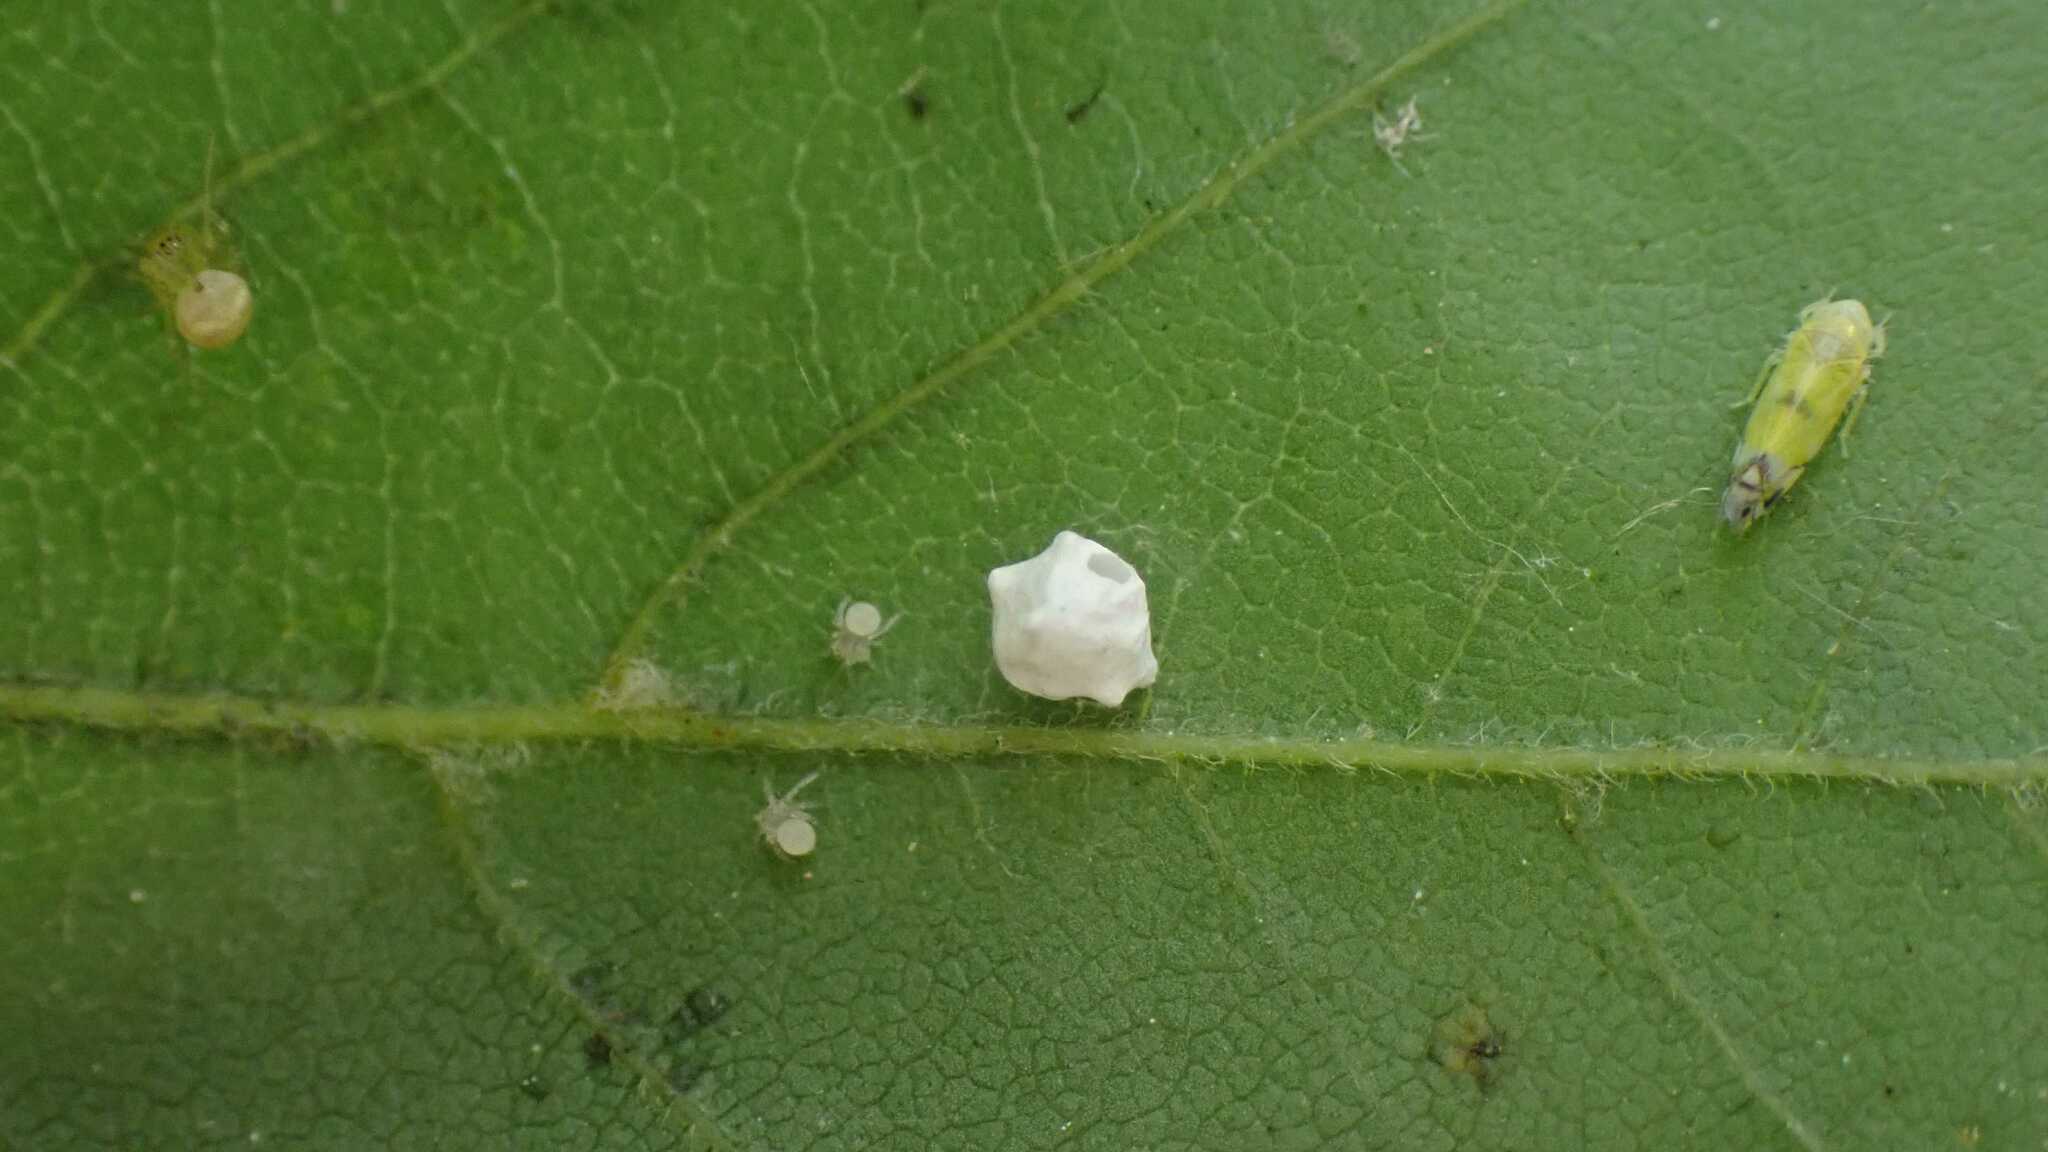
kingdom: Animalia
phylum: Arthropoda
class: Arachnida
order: Araneae
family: Theridiidae
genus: Paidiscura
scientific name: Paidiscura pallens
